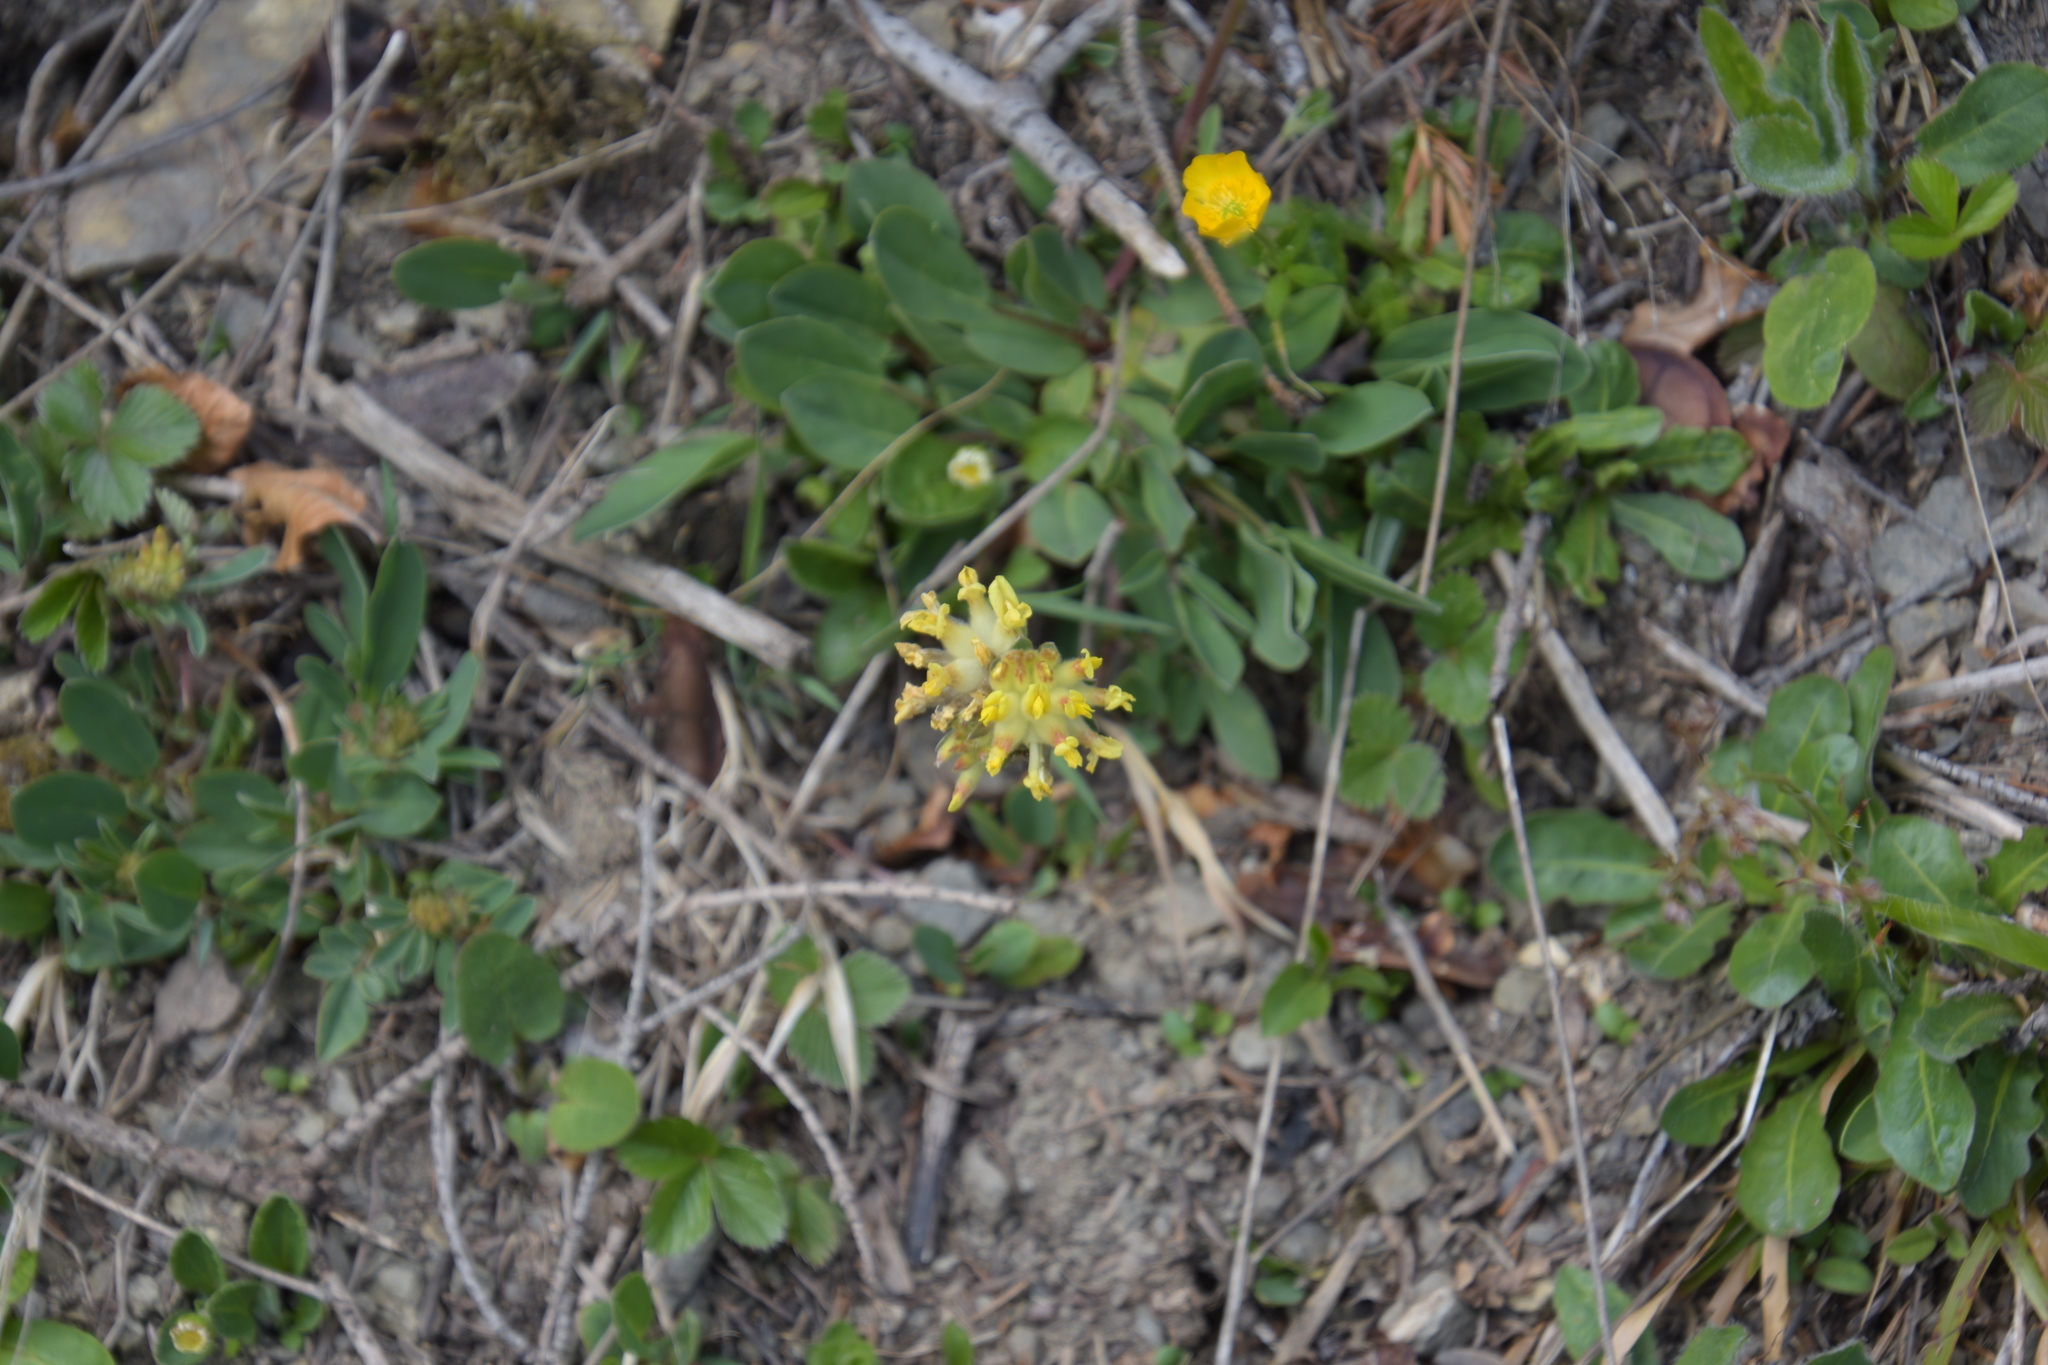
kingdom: Plantae
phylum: Tracheophyta
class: Magnoliopsida
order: Fabales
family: Fabaceae
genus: Anthyllis
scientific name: Anthyllis vulneraria
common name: Kidney vetch
